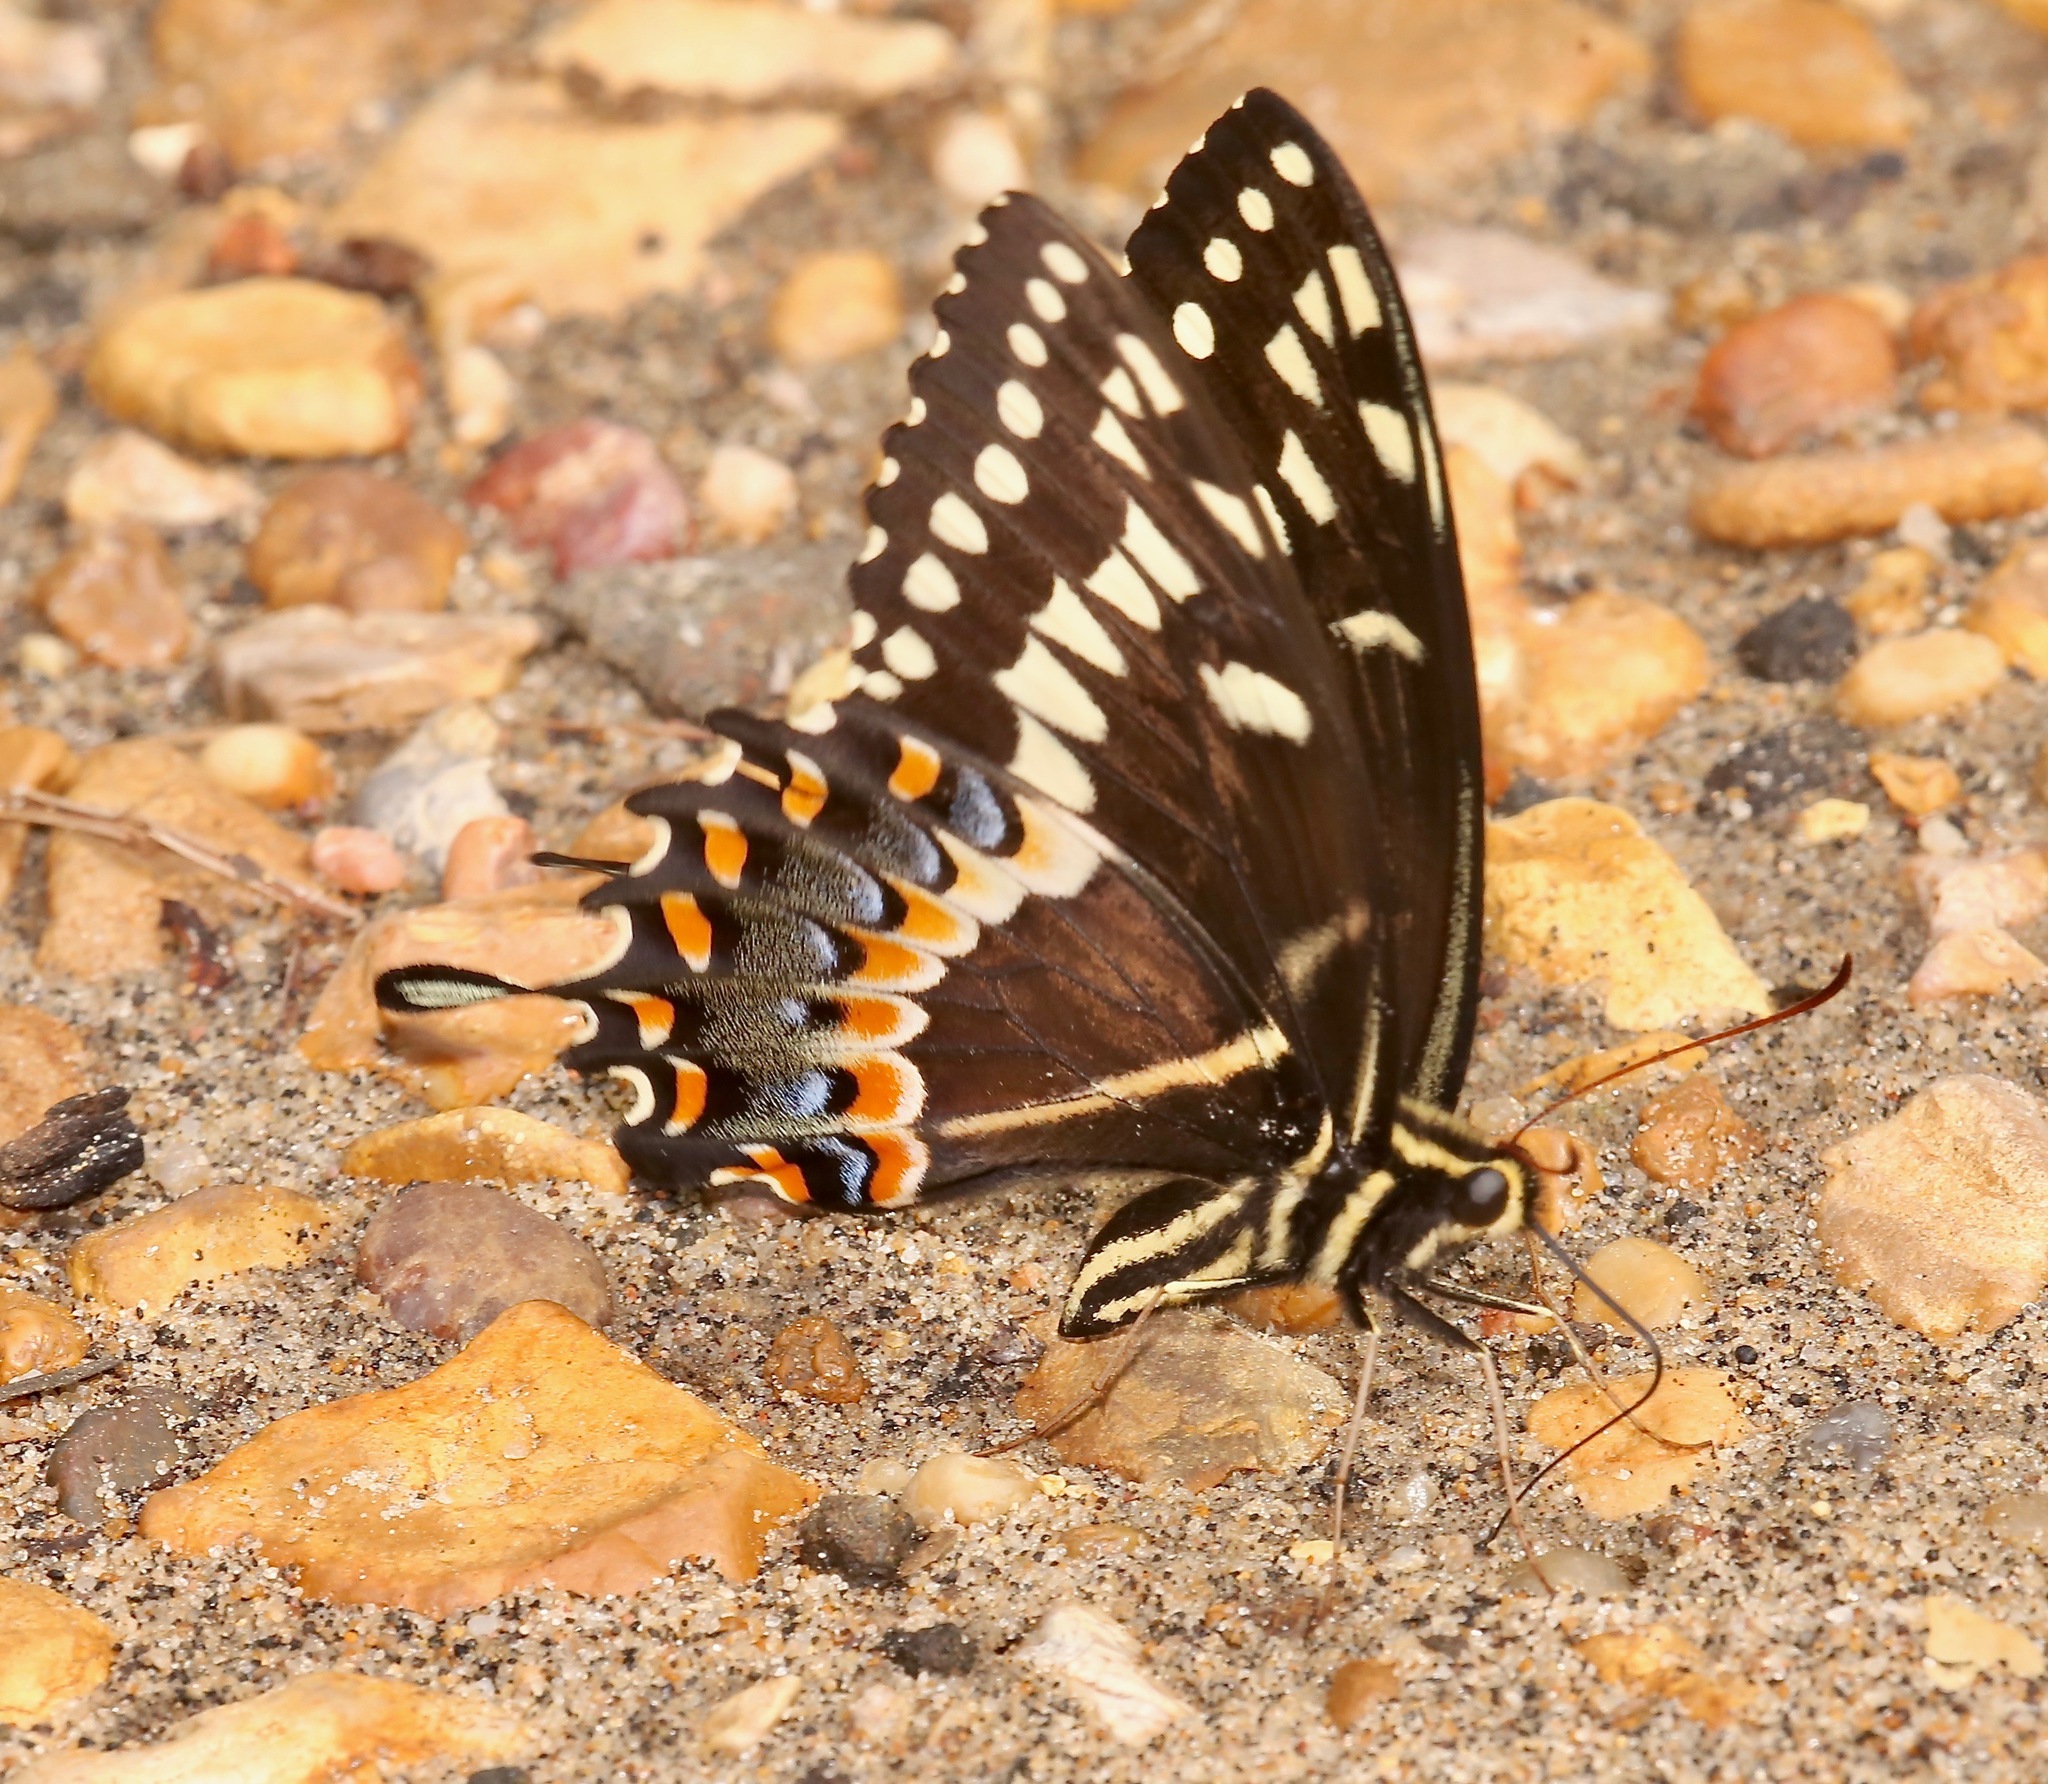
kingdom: Animalia
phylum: Arthropoda
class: Insecta
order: Lepidoptera
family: Papilionidae
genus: Papilio
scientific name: Papilio palamedes
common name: Palamedes swallowtail
